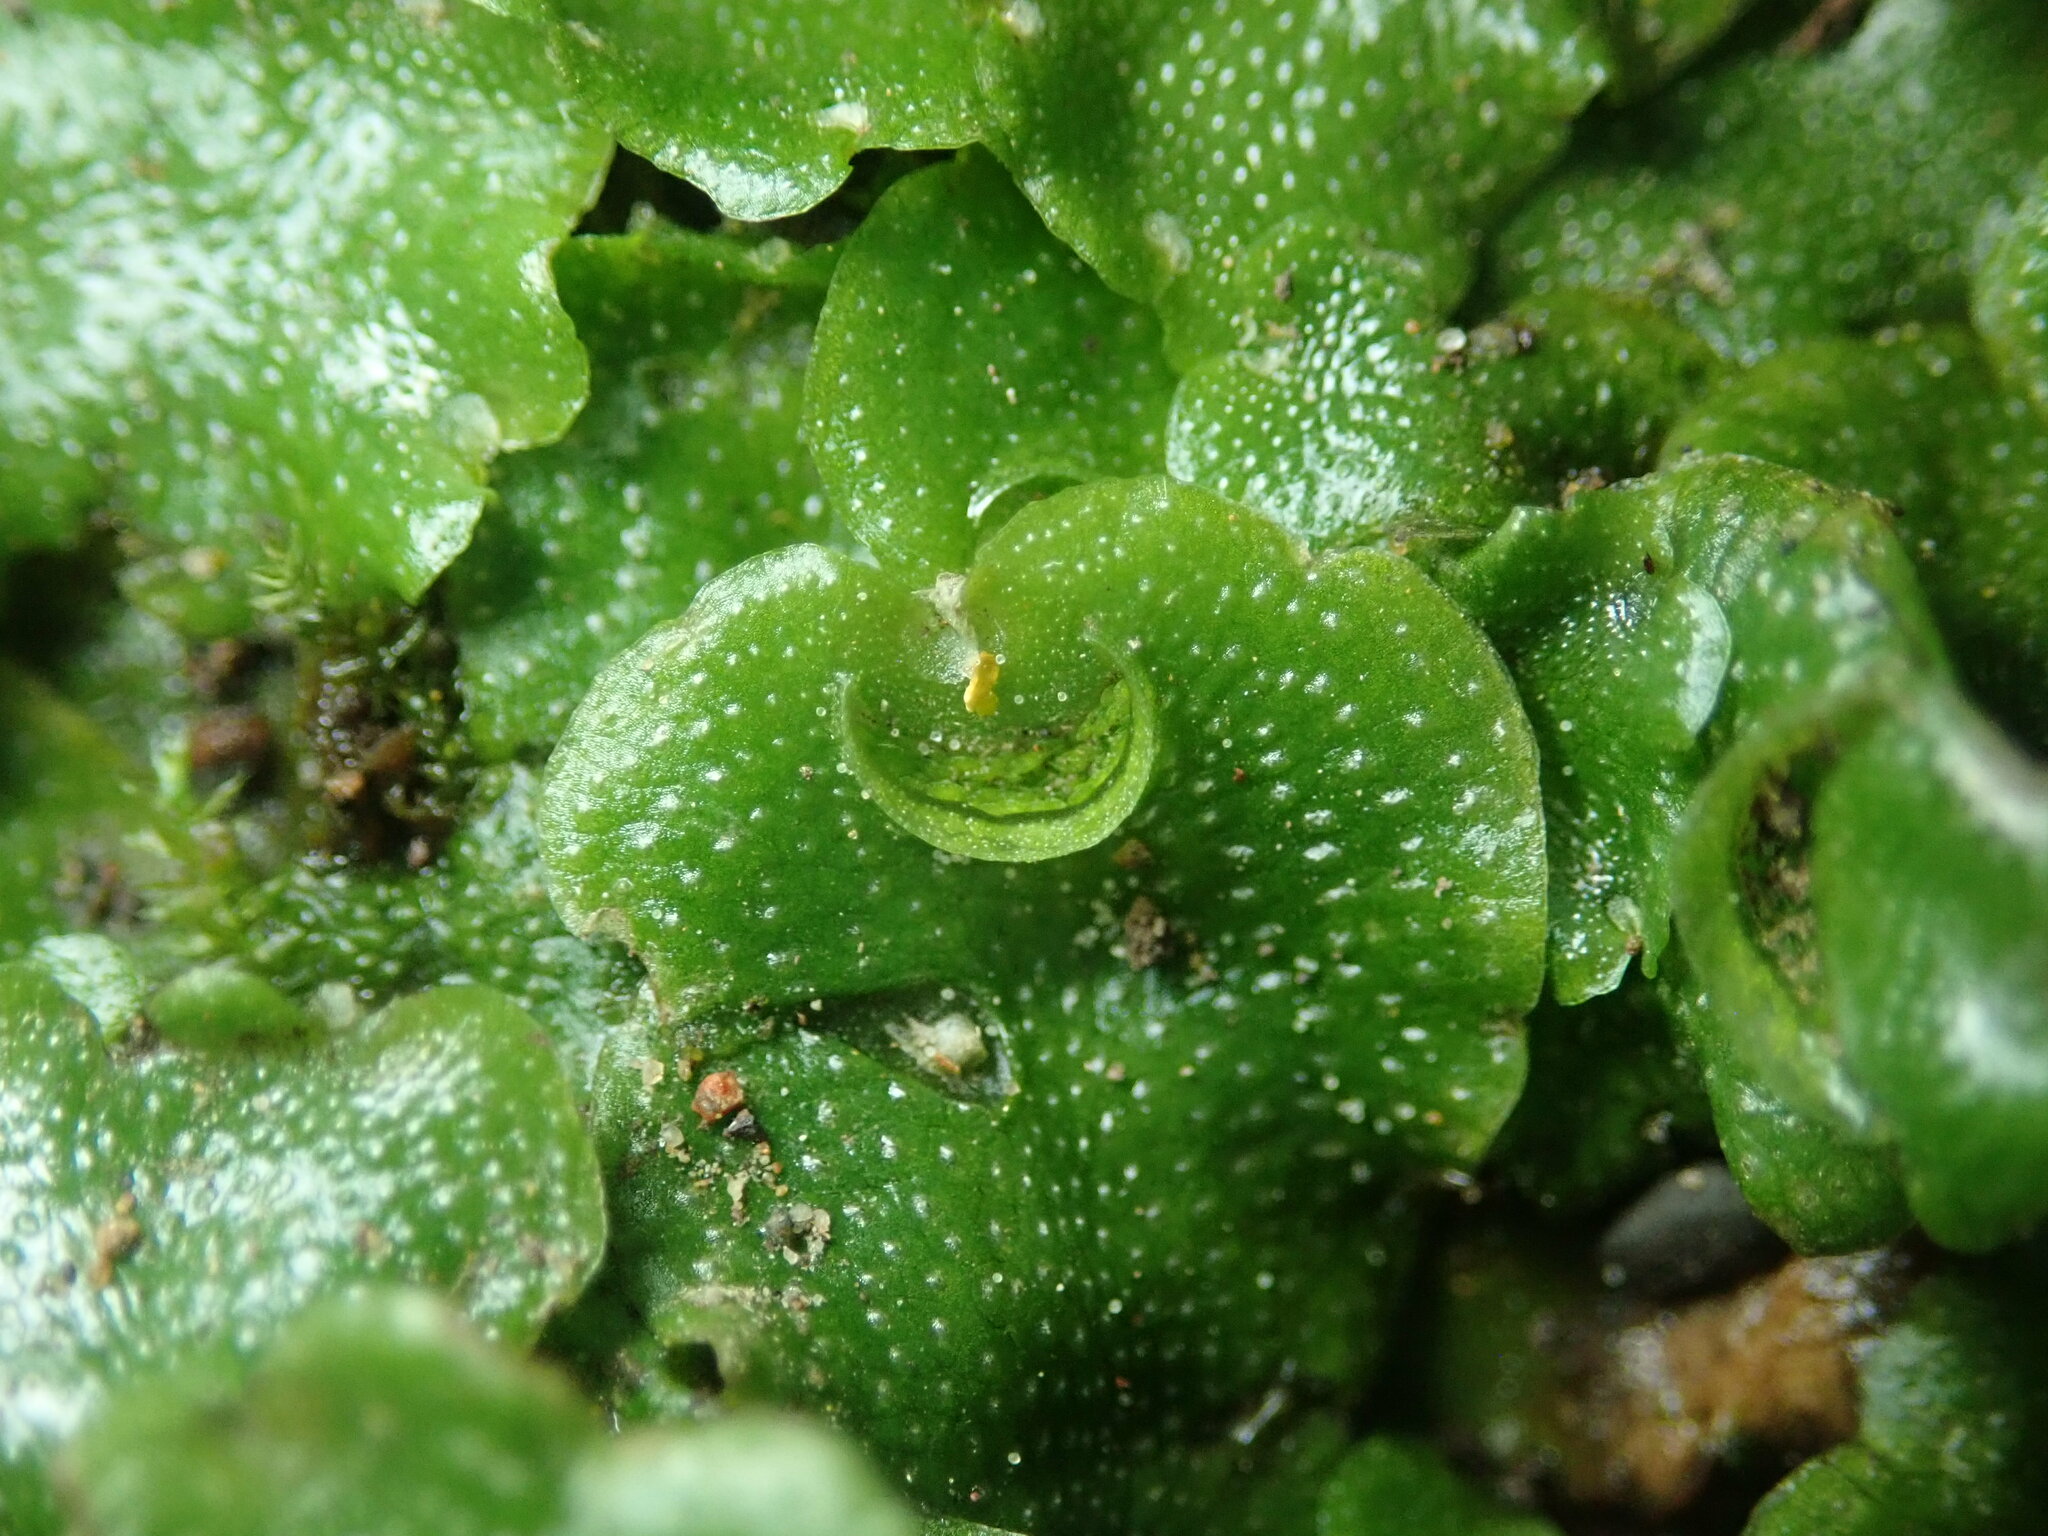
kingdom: Plantae
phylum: Marchantiophyta
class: Marchantiopsida
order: Lunulariales
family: Lunulariaceae
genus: Lunularia
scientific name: Lunularia cruciata
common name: Crescent-cup liverwort
